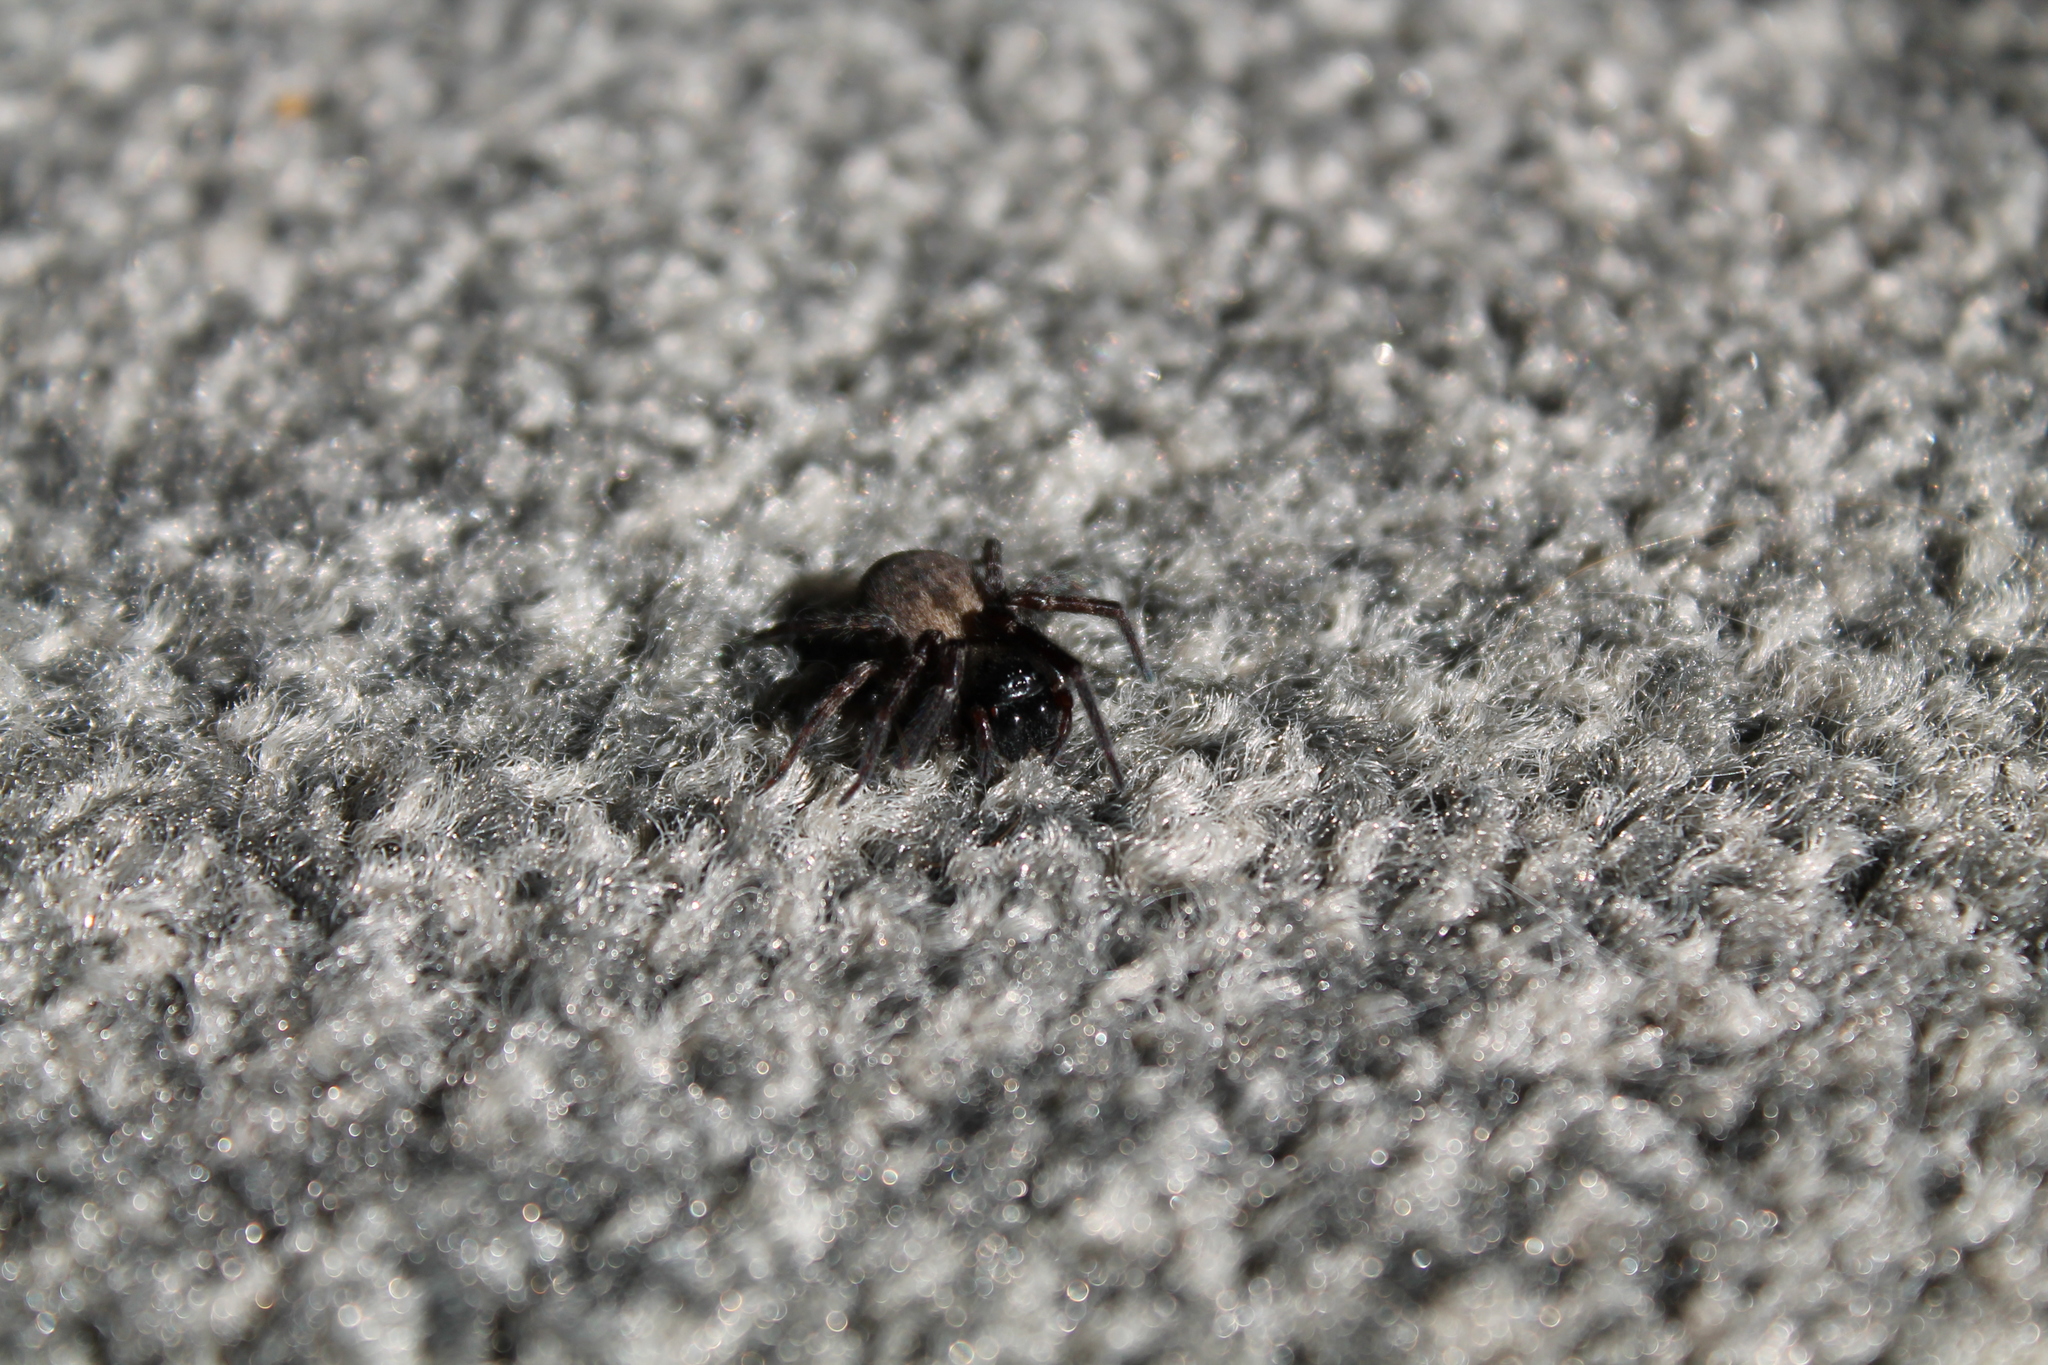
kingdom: Animalia
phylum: Arthropoda
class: Arachnida
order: Araneae
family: Desidae
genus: Badumna
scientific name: Badumna longinqua
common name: Gray house spider
